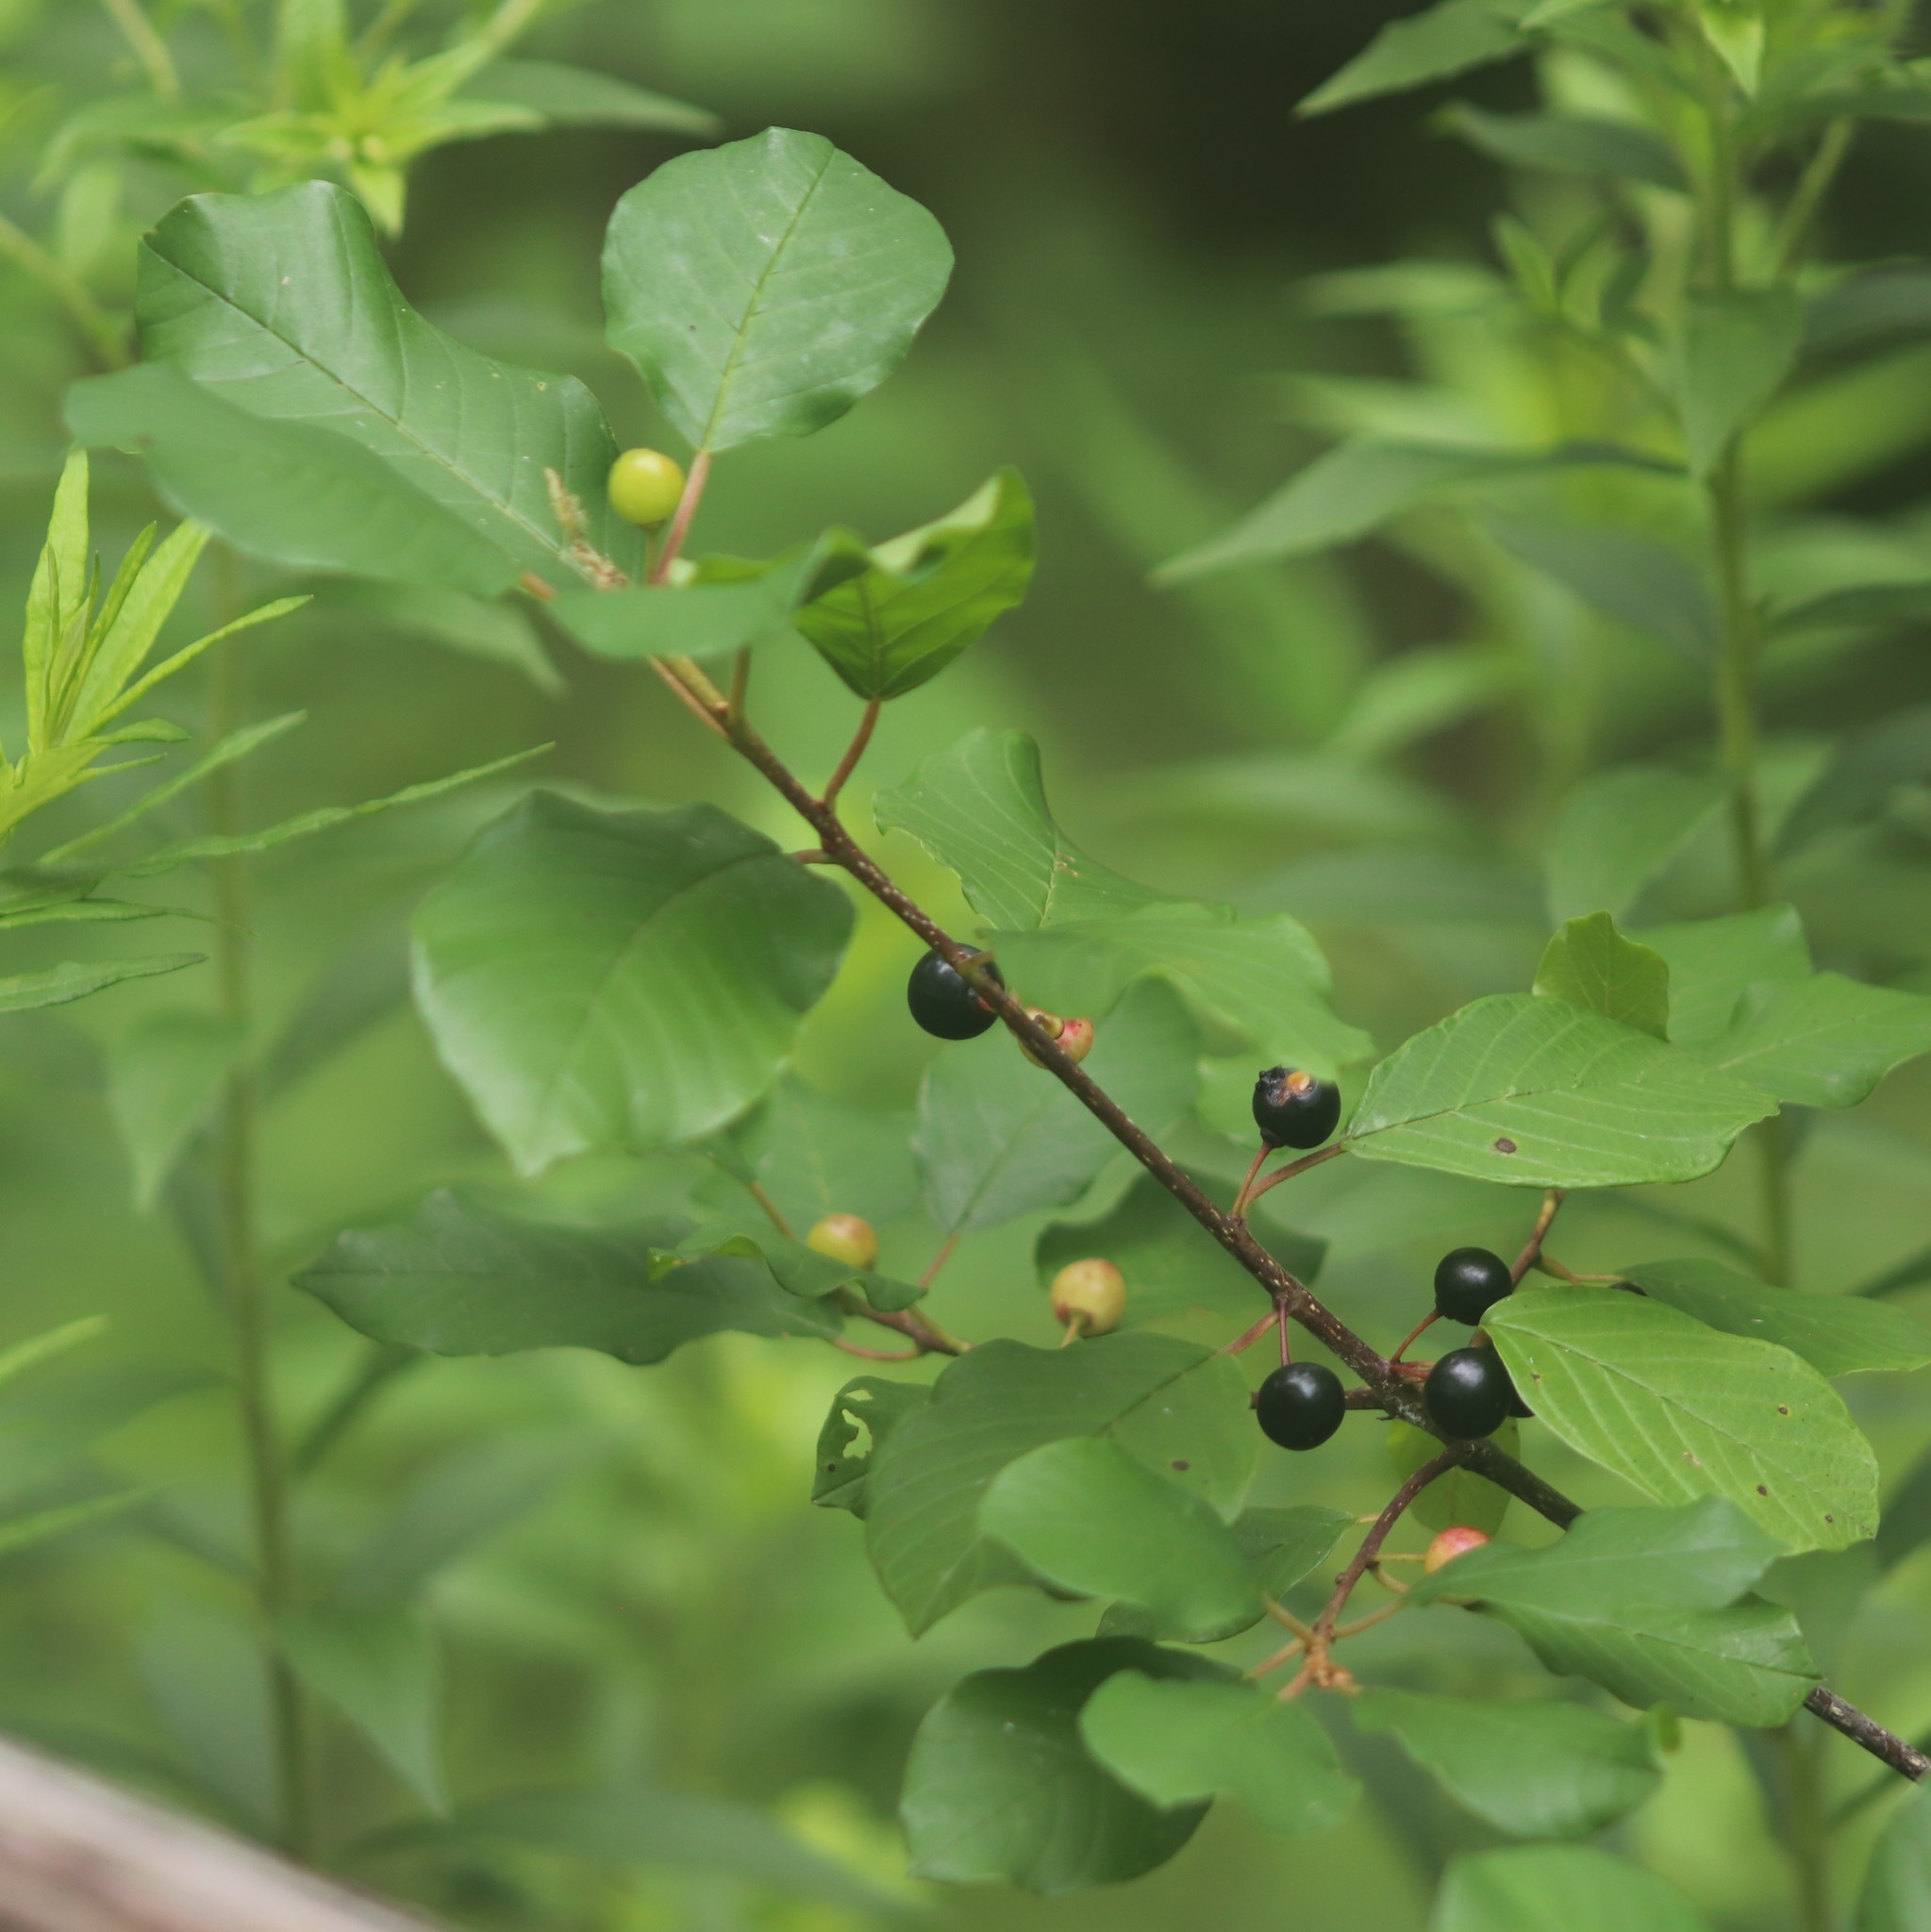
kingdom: Plantae
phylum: Tracheophyta
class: Magnoliopsida
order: Rosales
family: Rhamnaceae
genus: Frangula
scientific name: Frangula alnus
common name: Alder buckthorn
